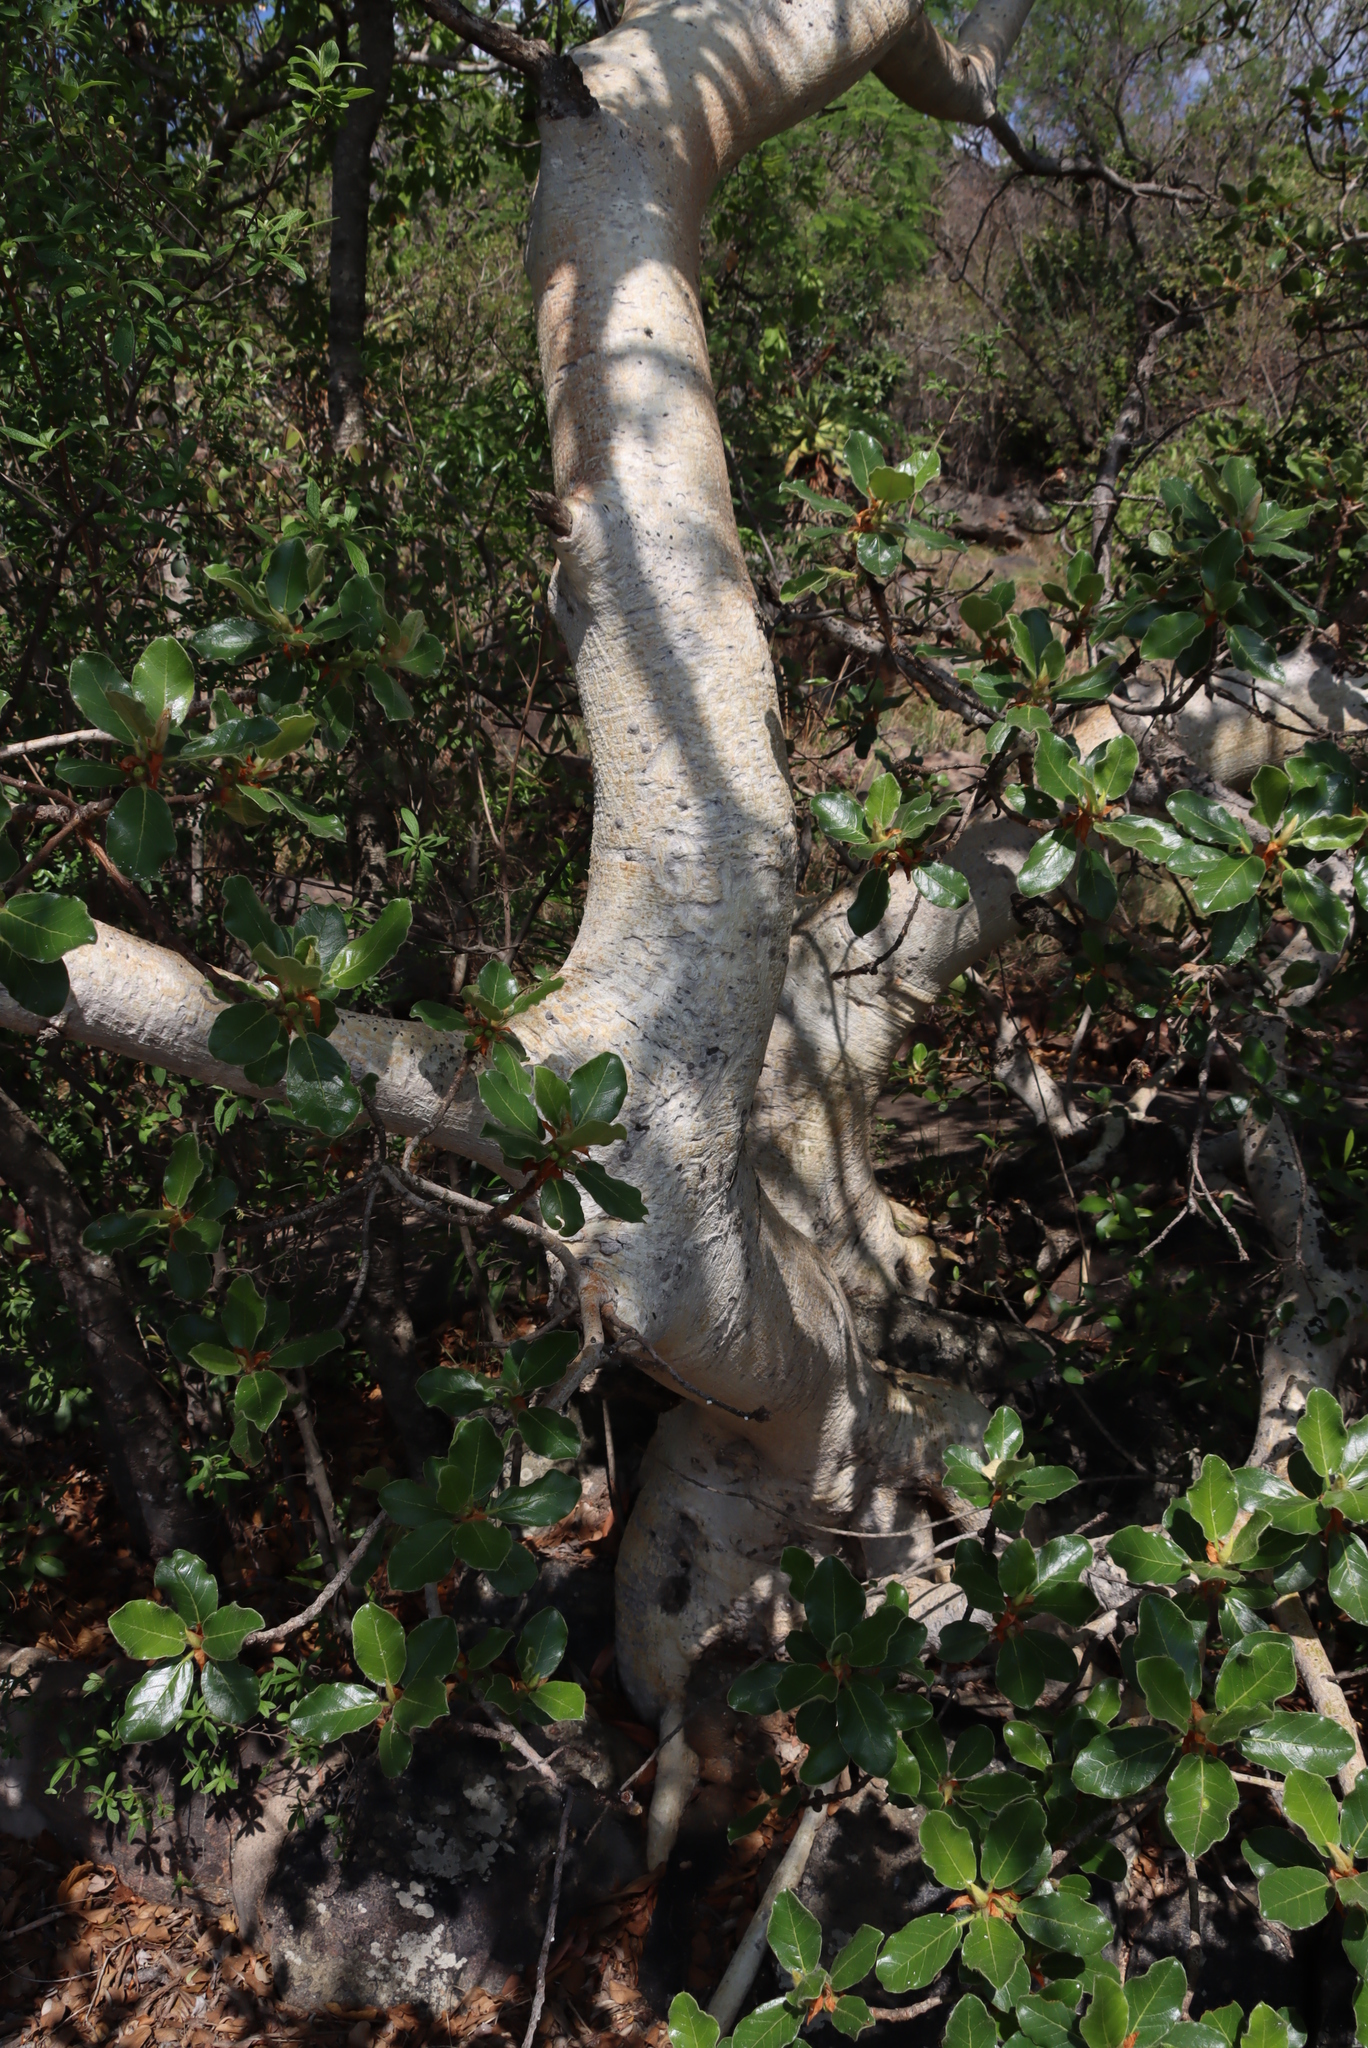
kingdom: Plantae
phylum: Tracheophyta
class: Magnoliopsida
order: Rosales
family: Moraceae
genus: Ficus
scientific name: Ficus glumosa
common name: Hairy rock fig
